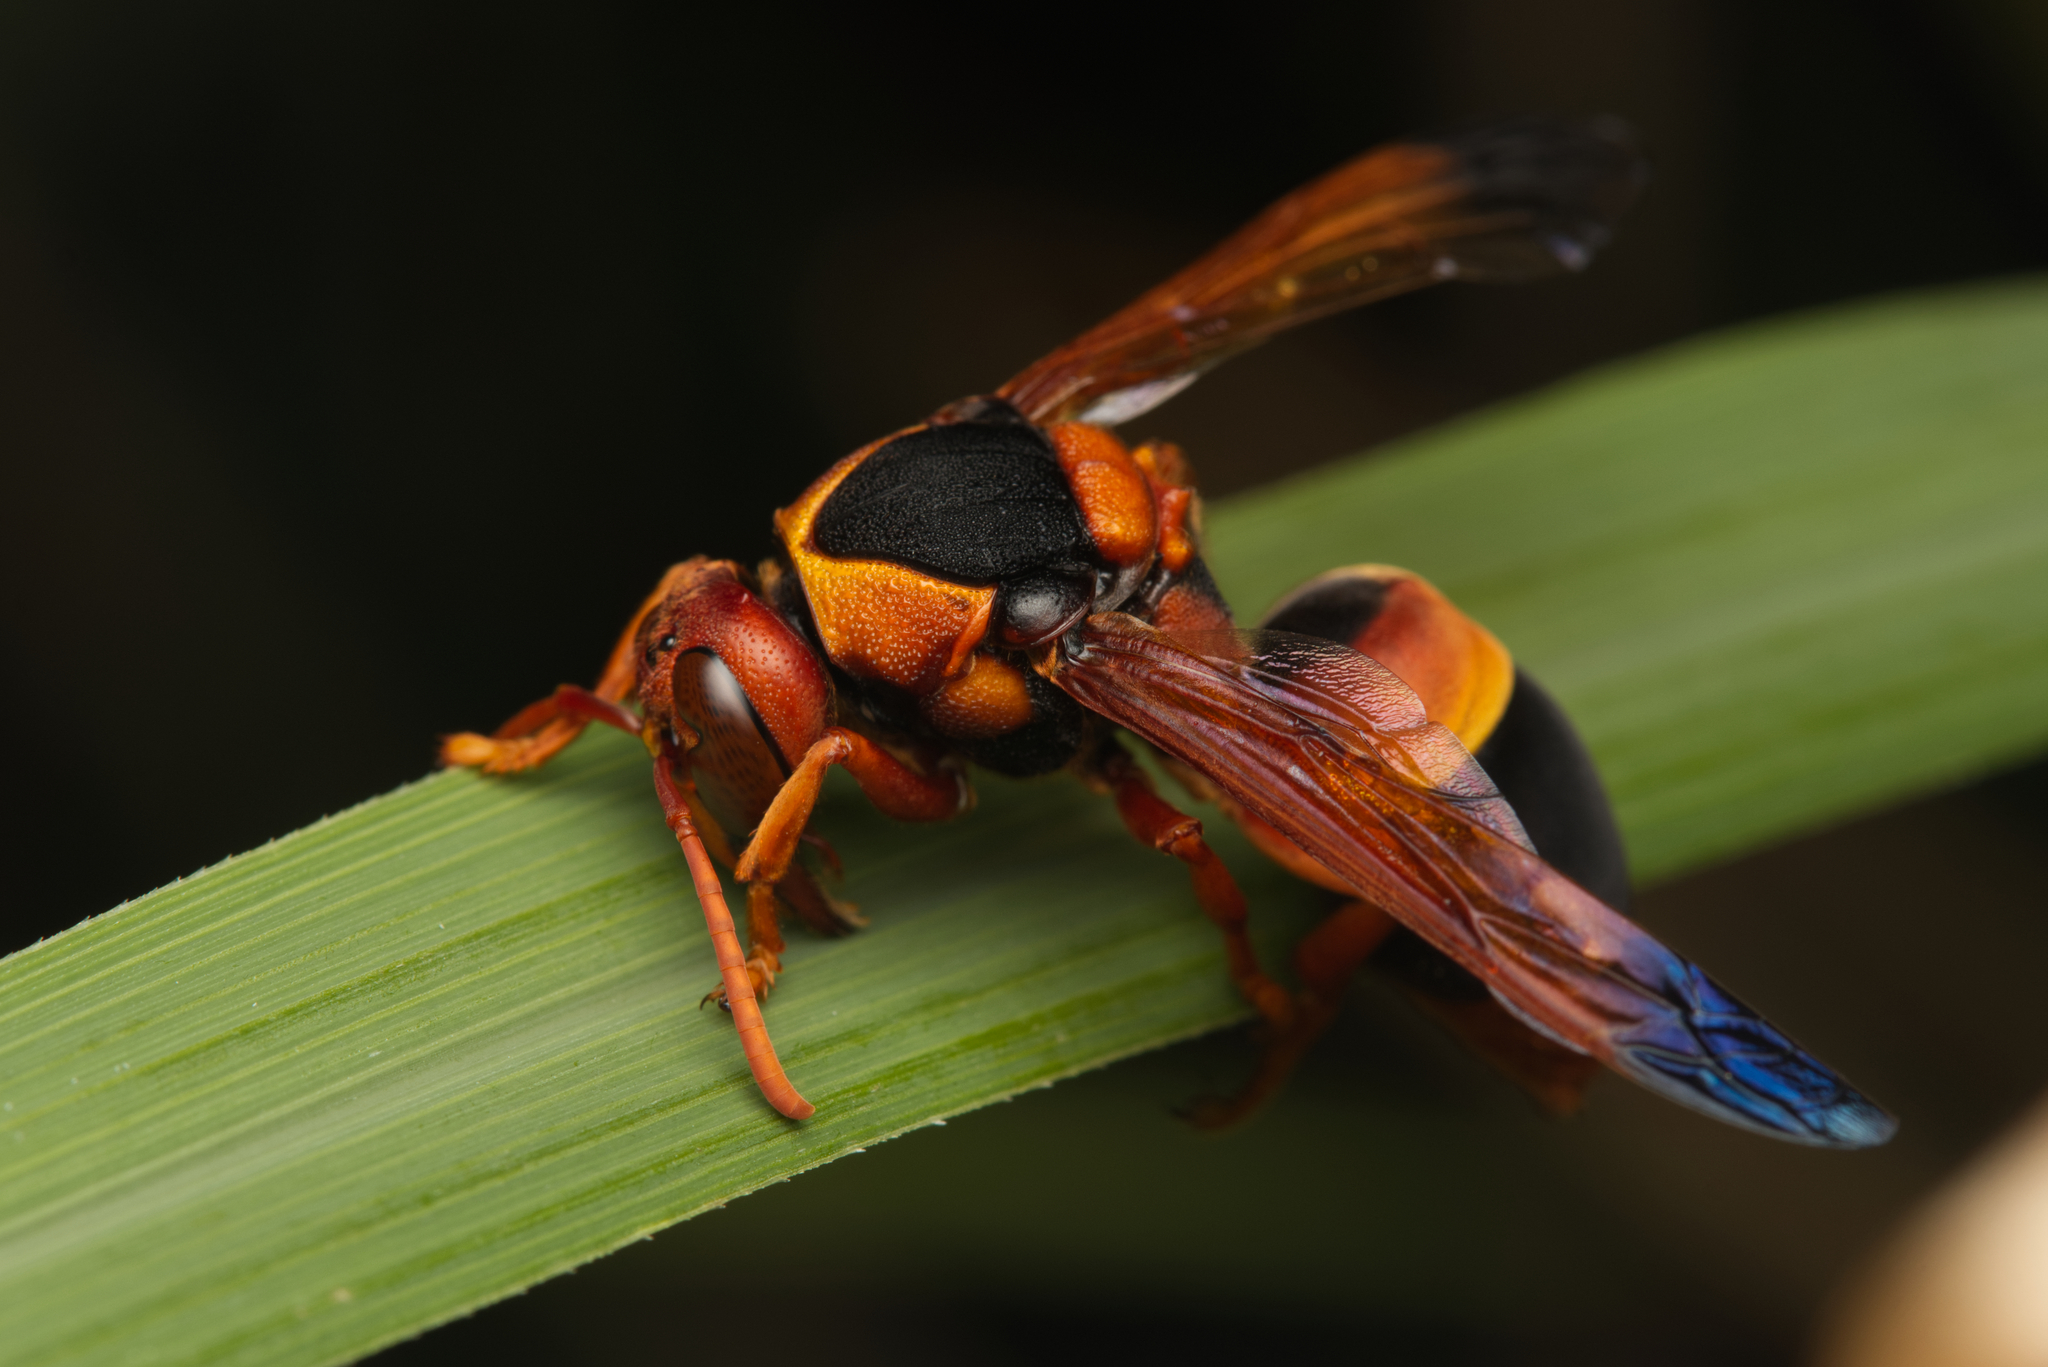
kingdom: Animalia
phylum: Arthropoda
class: Insecta
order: Hymenoptera
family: Eumenidae
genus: Abispa
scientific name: Abispa ephippium
